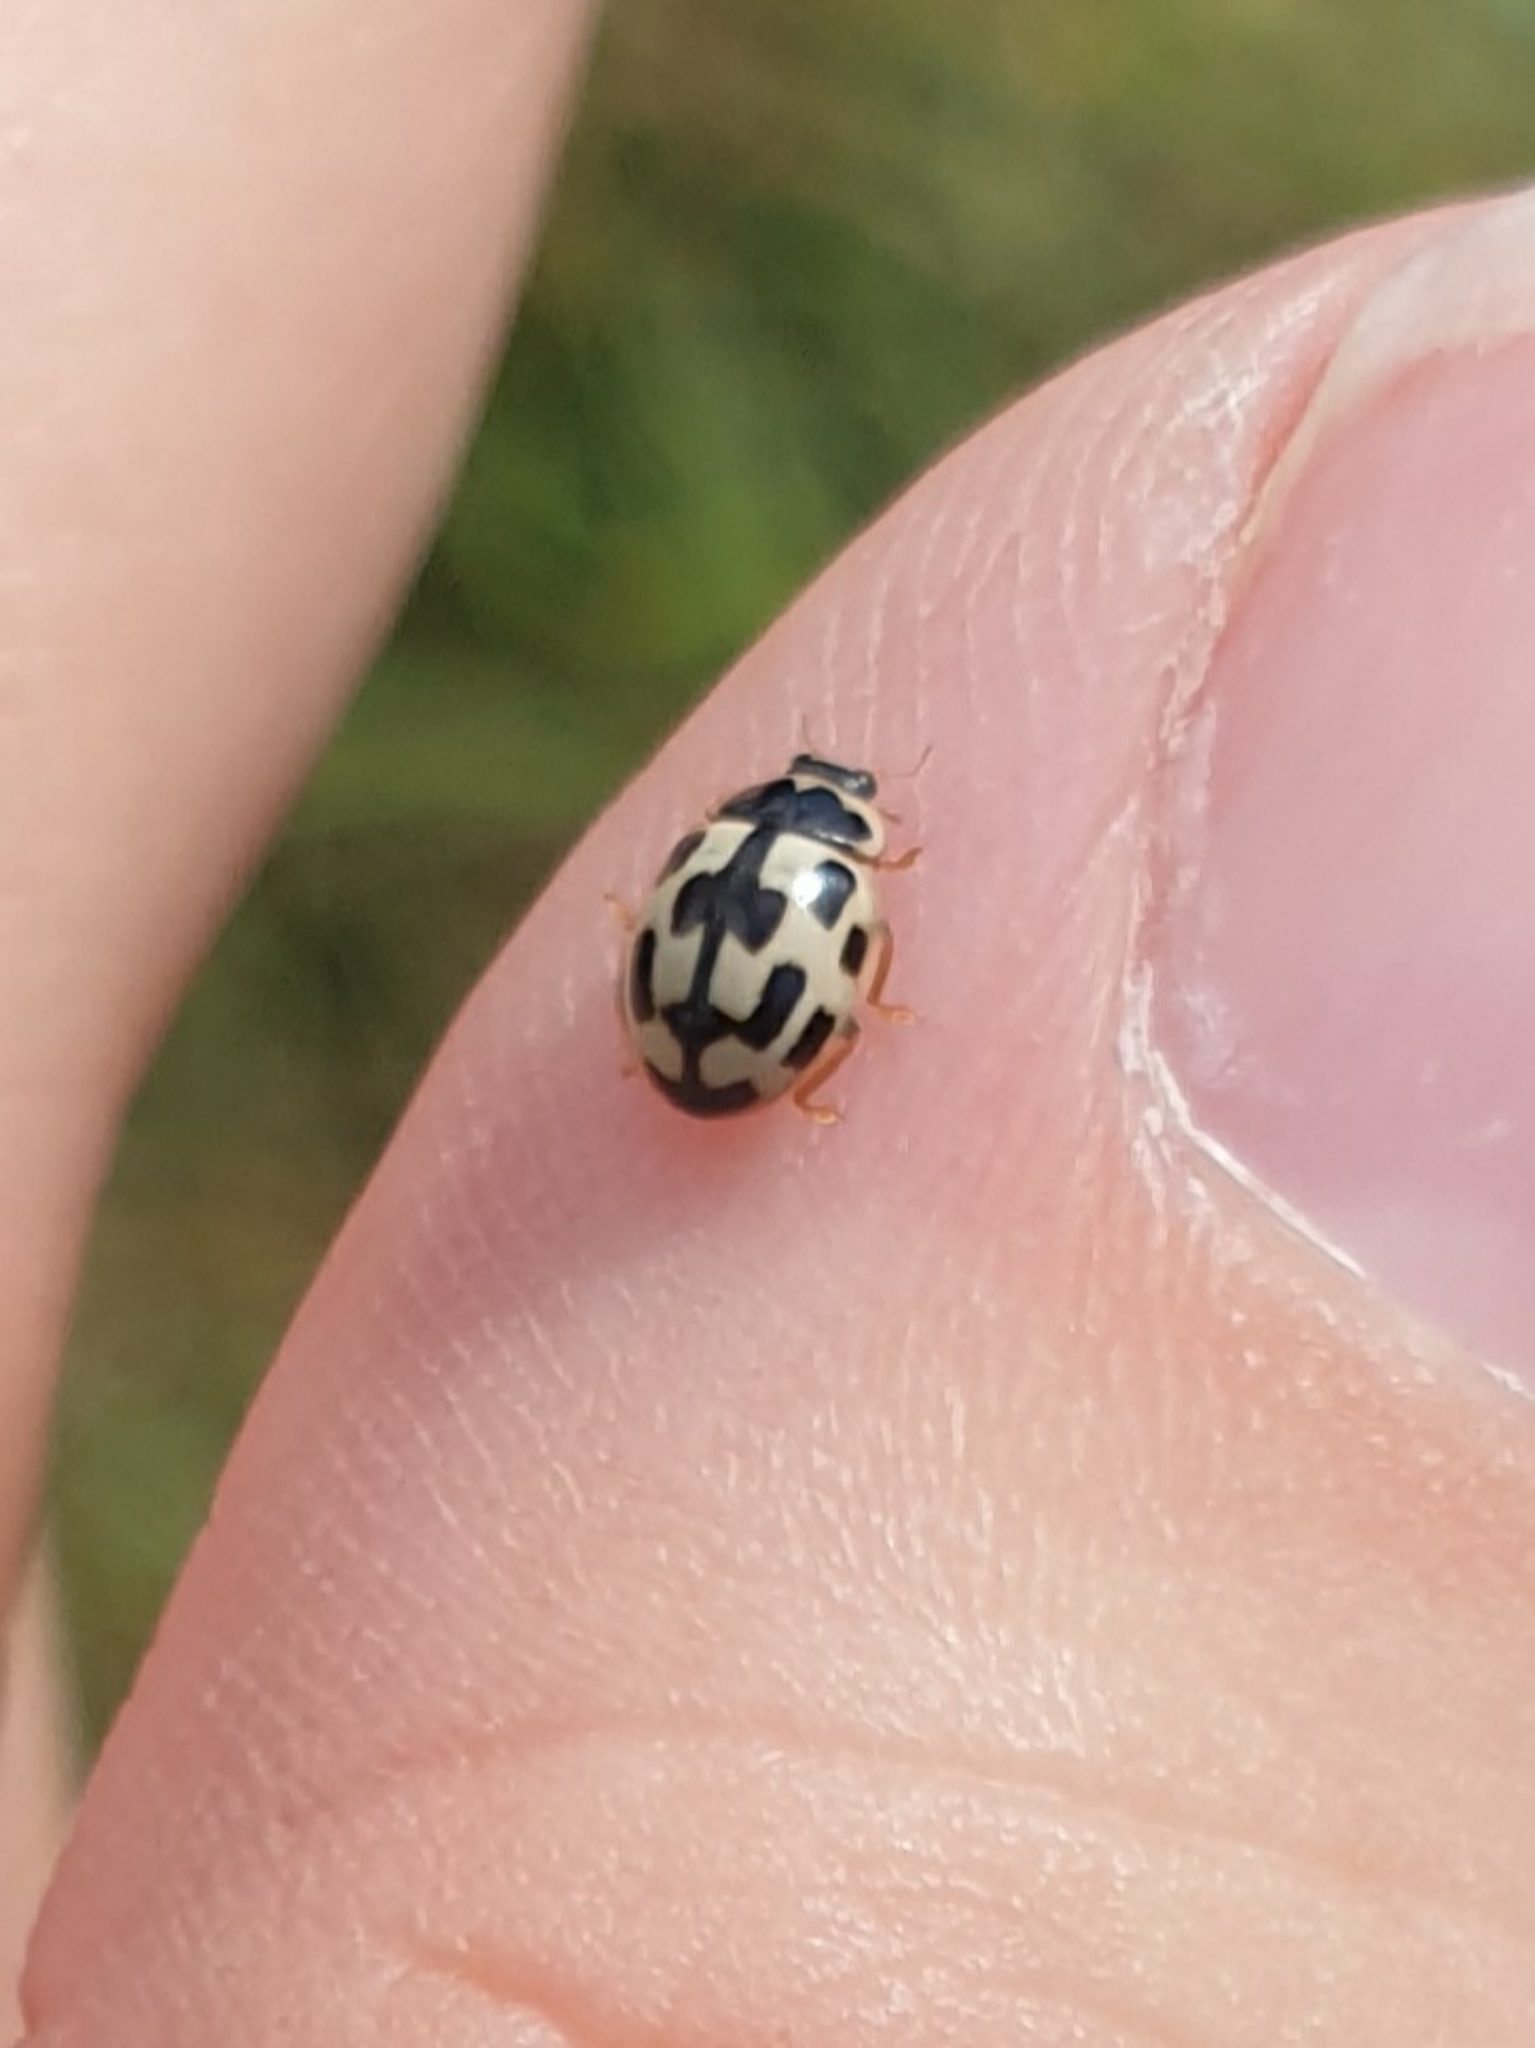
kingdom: Animalia
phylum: Arthropoda
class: Insecta
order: Coleoptera
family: Coccinellidae
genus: Propylaea
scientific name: Propylaea quatuordecimpunctata
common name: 14-spotted ladybird beetle
